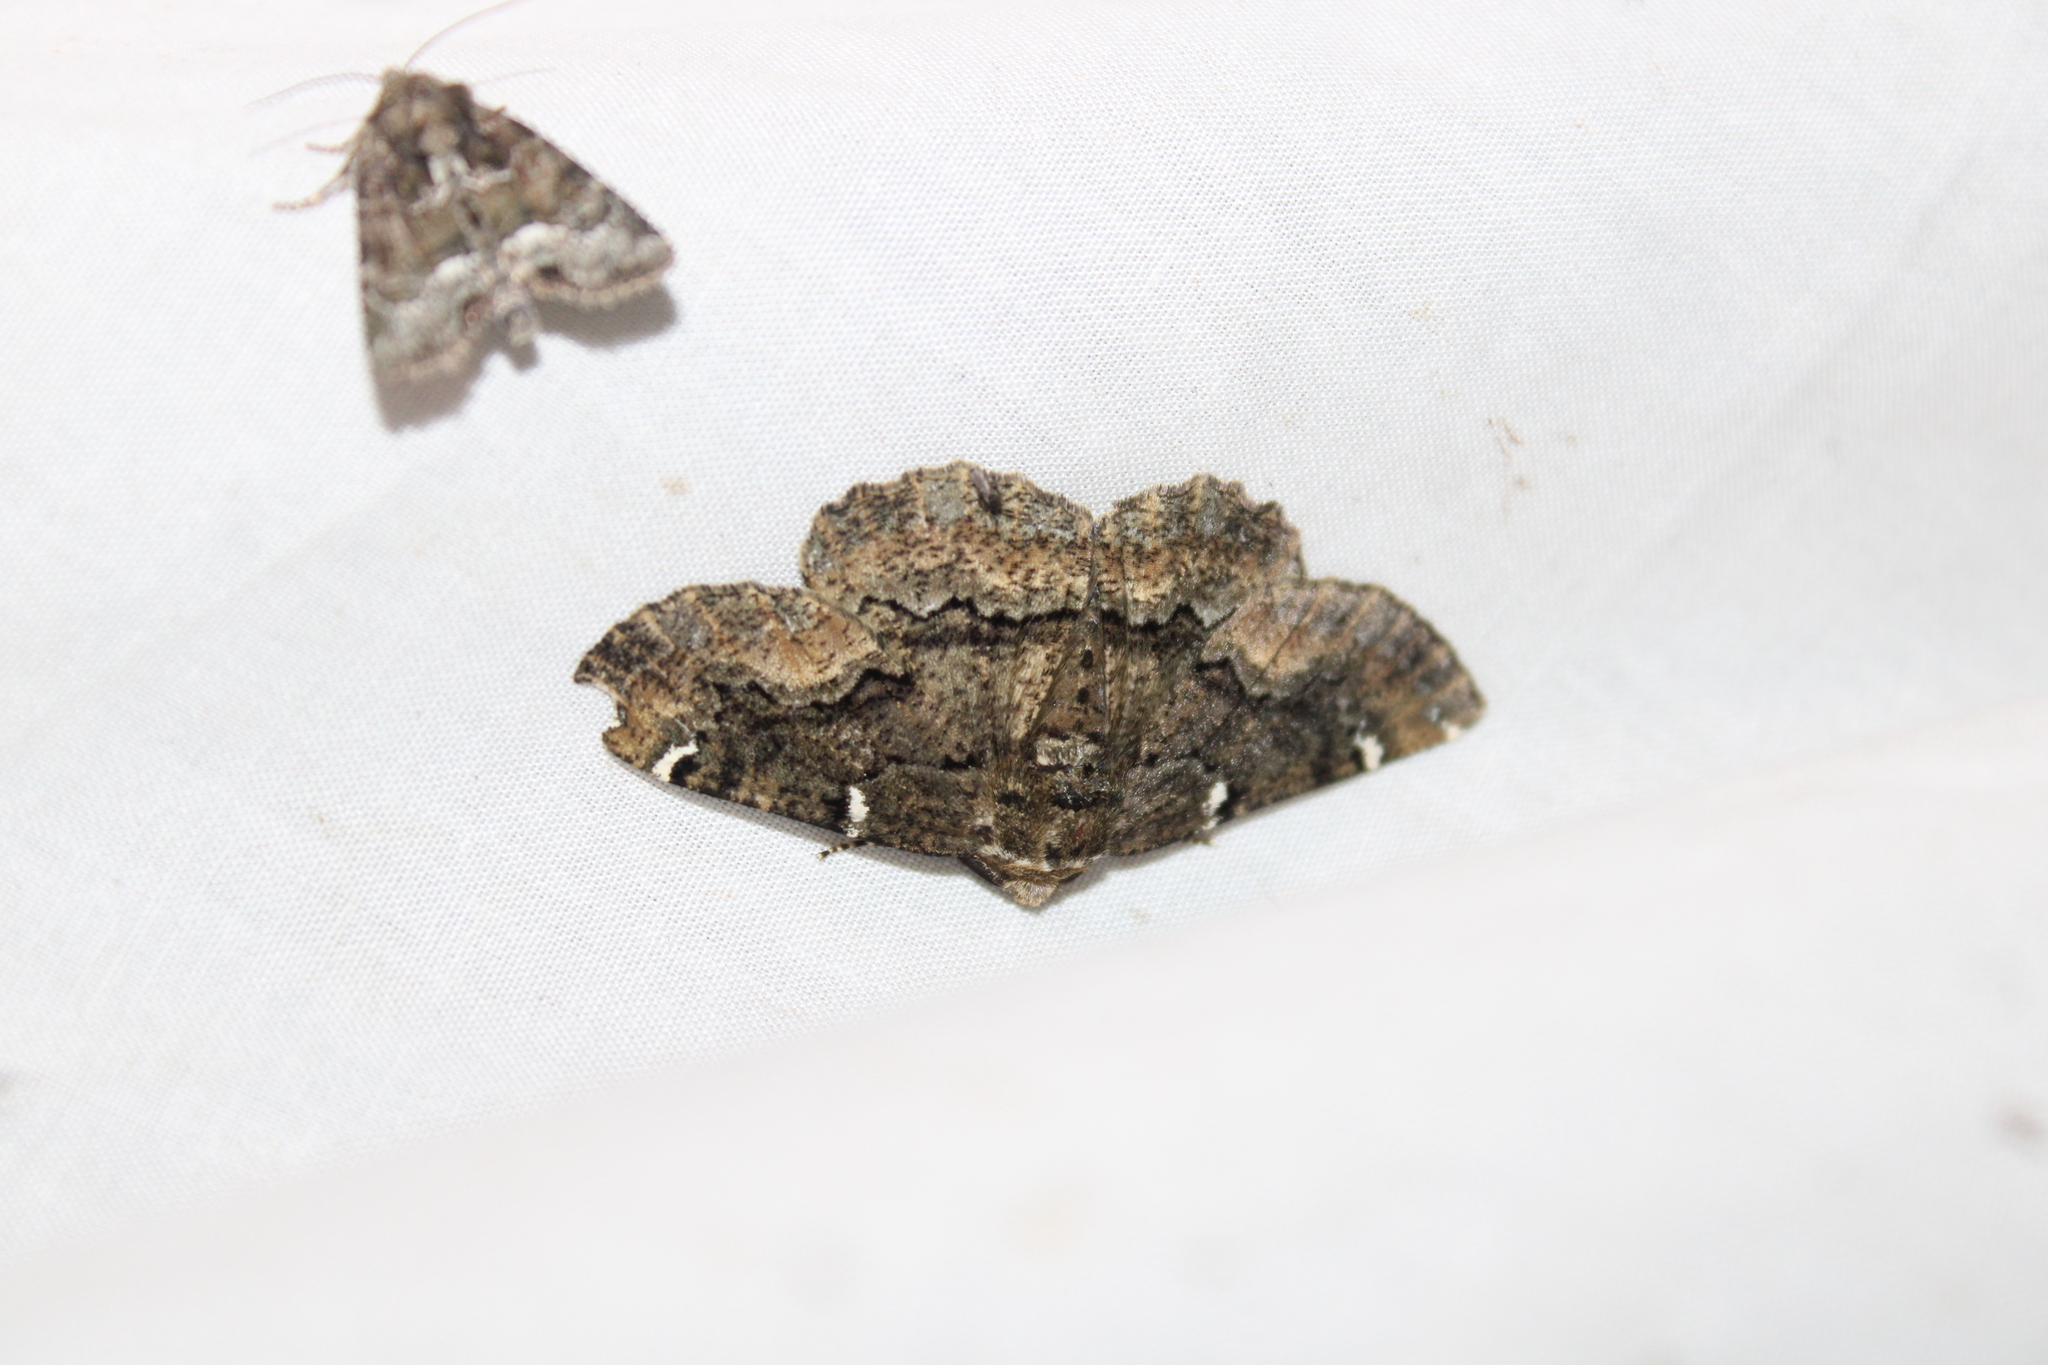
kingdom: Animalia
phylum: Arthropoda
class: Insecta
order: Lepidoptera
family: Geometridae
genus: Phaeoura
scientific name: Phaeoura quernaria
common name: Oak beauty
